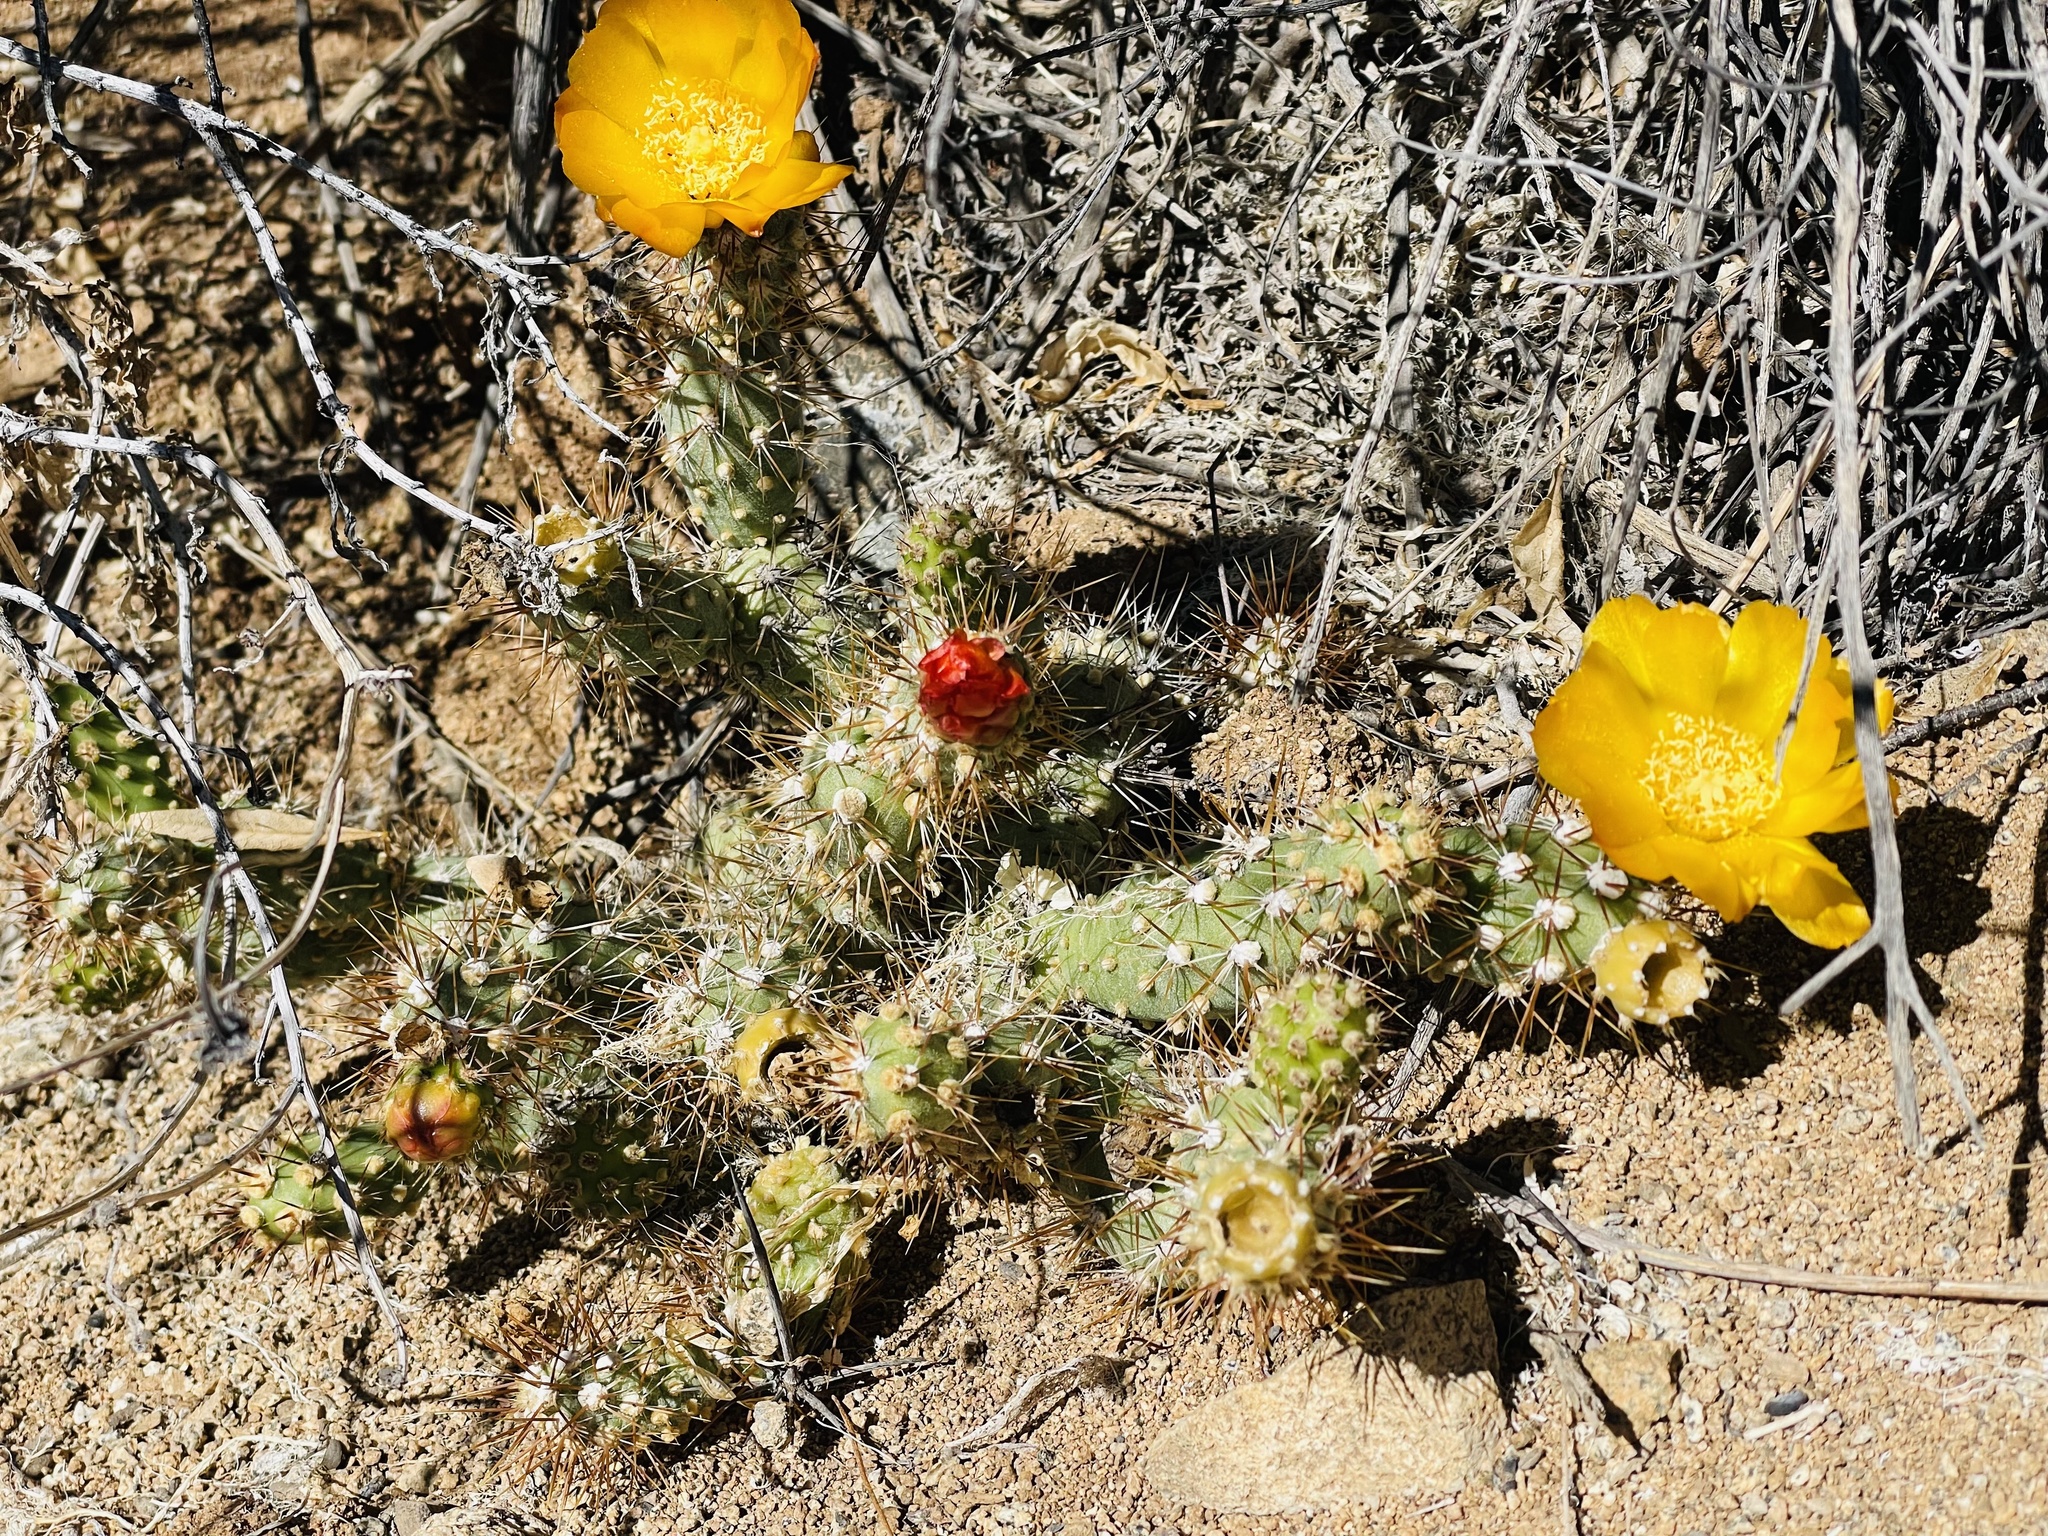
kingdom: Plantae
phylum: Tracheophyta
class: Magnoliopsida
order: Caryophyllales
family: Cactaceae
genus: Cumulopuntia
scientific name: Cumulopuntia leucophaea
